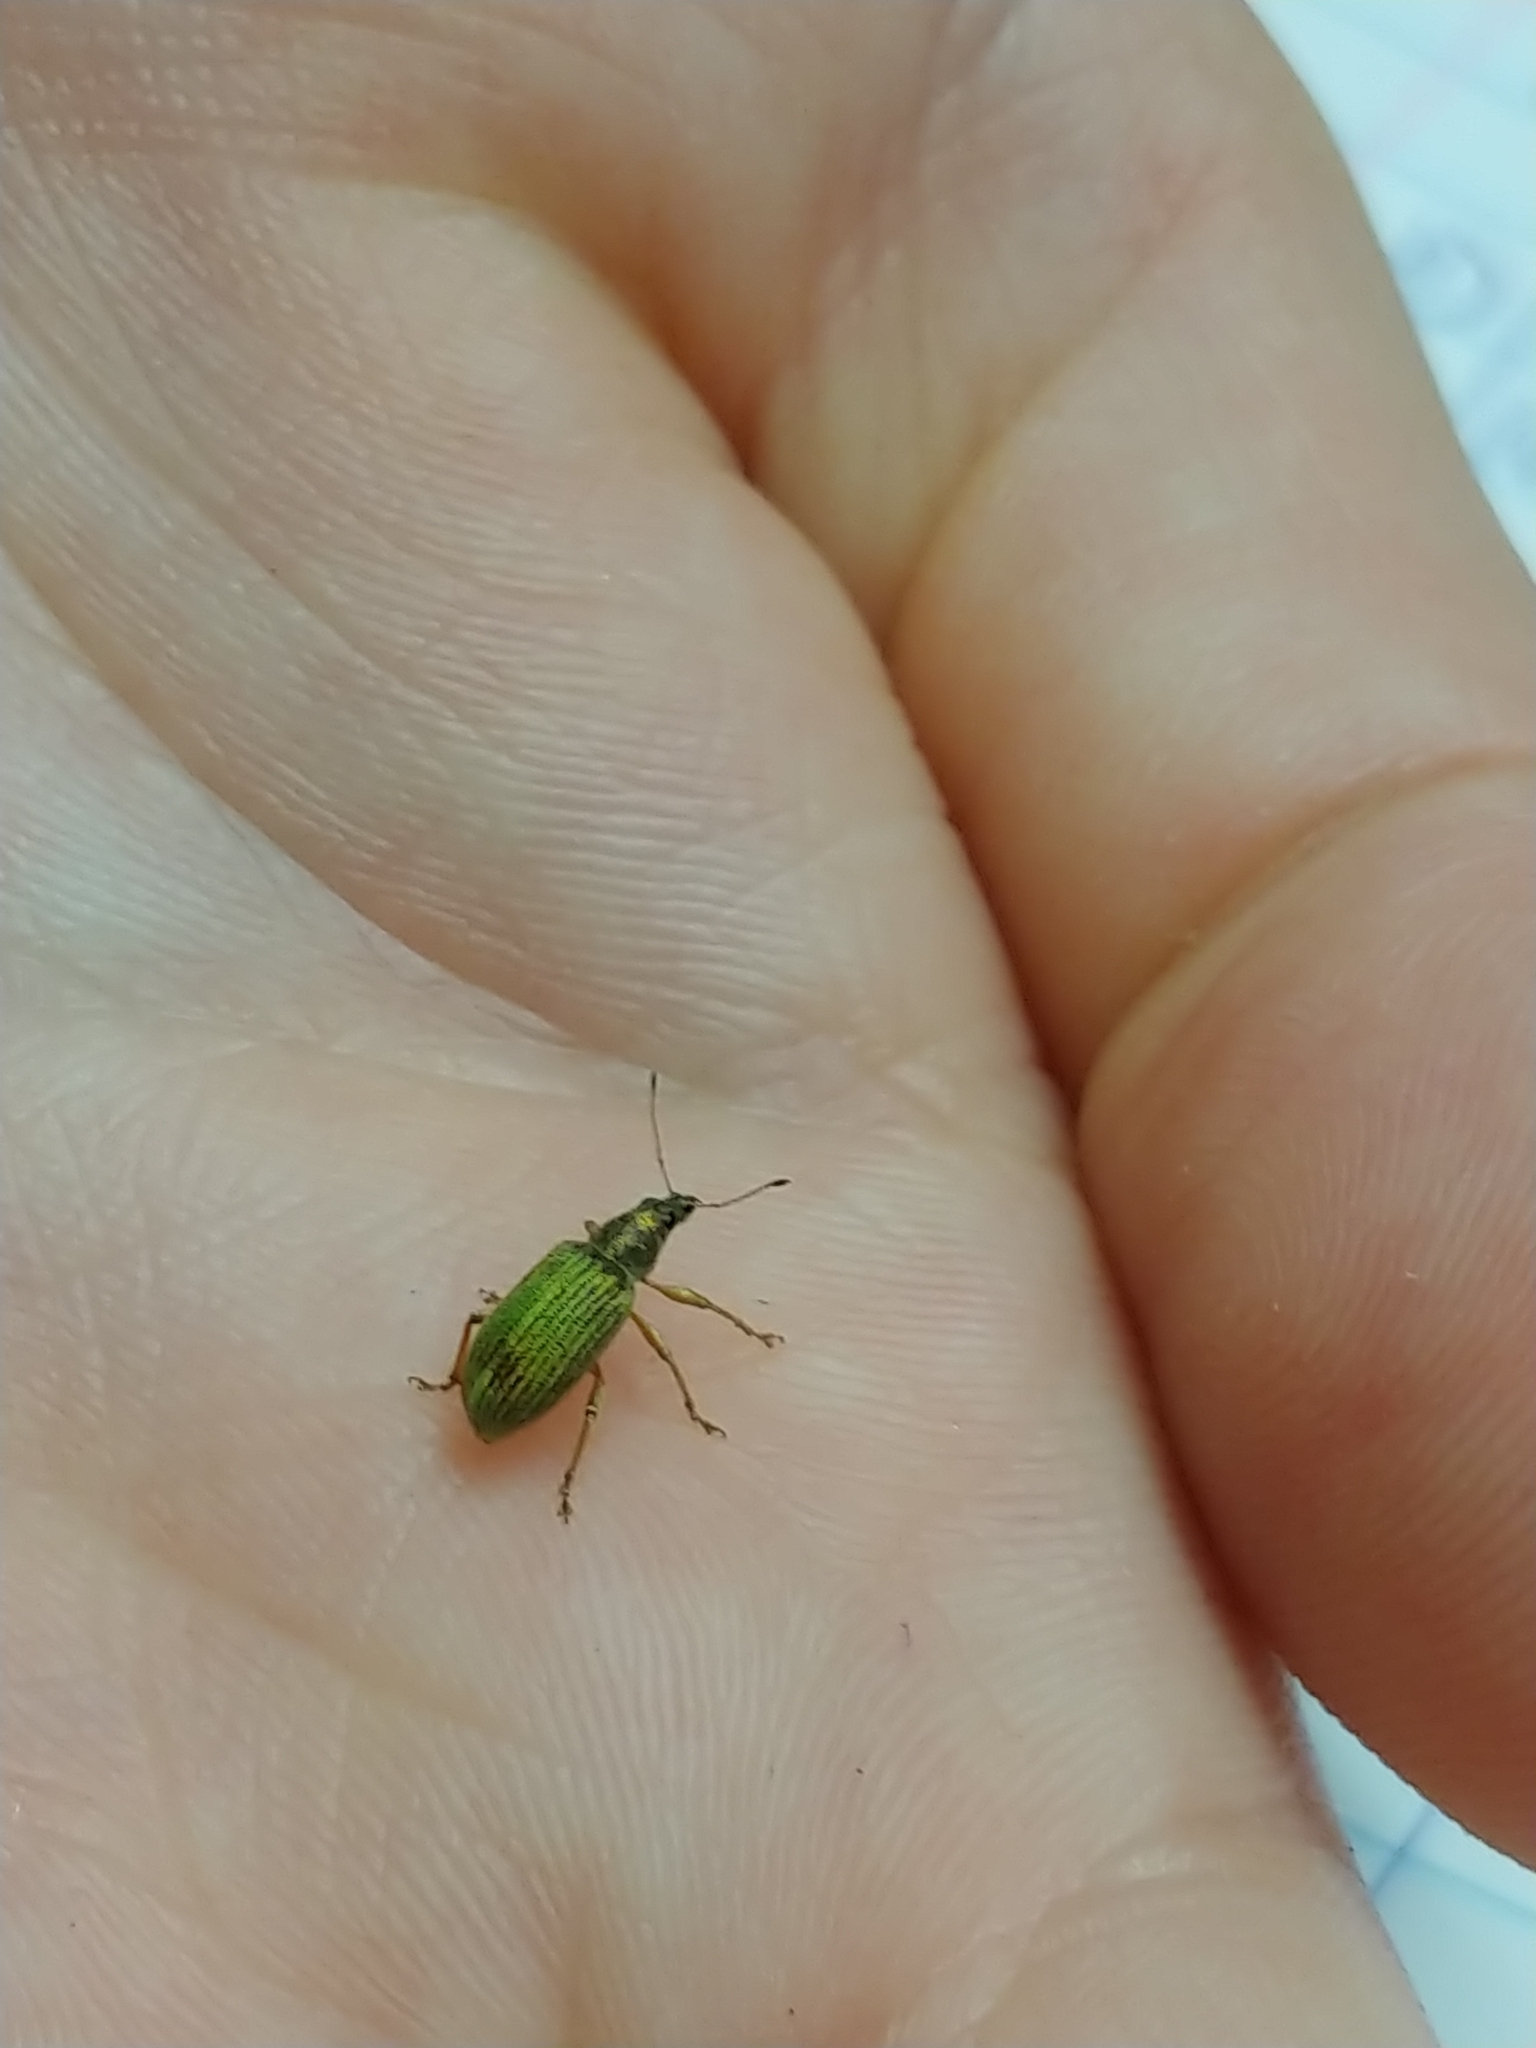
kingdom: Animalia
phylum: Arthropoda
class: Insecta
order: Coleoptera
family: Curculionidae
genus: Polydrusus
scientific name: Polydrusus formosus
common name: Weevil
